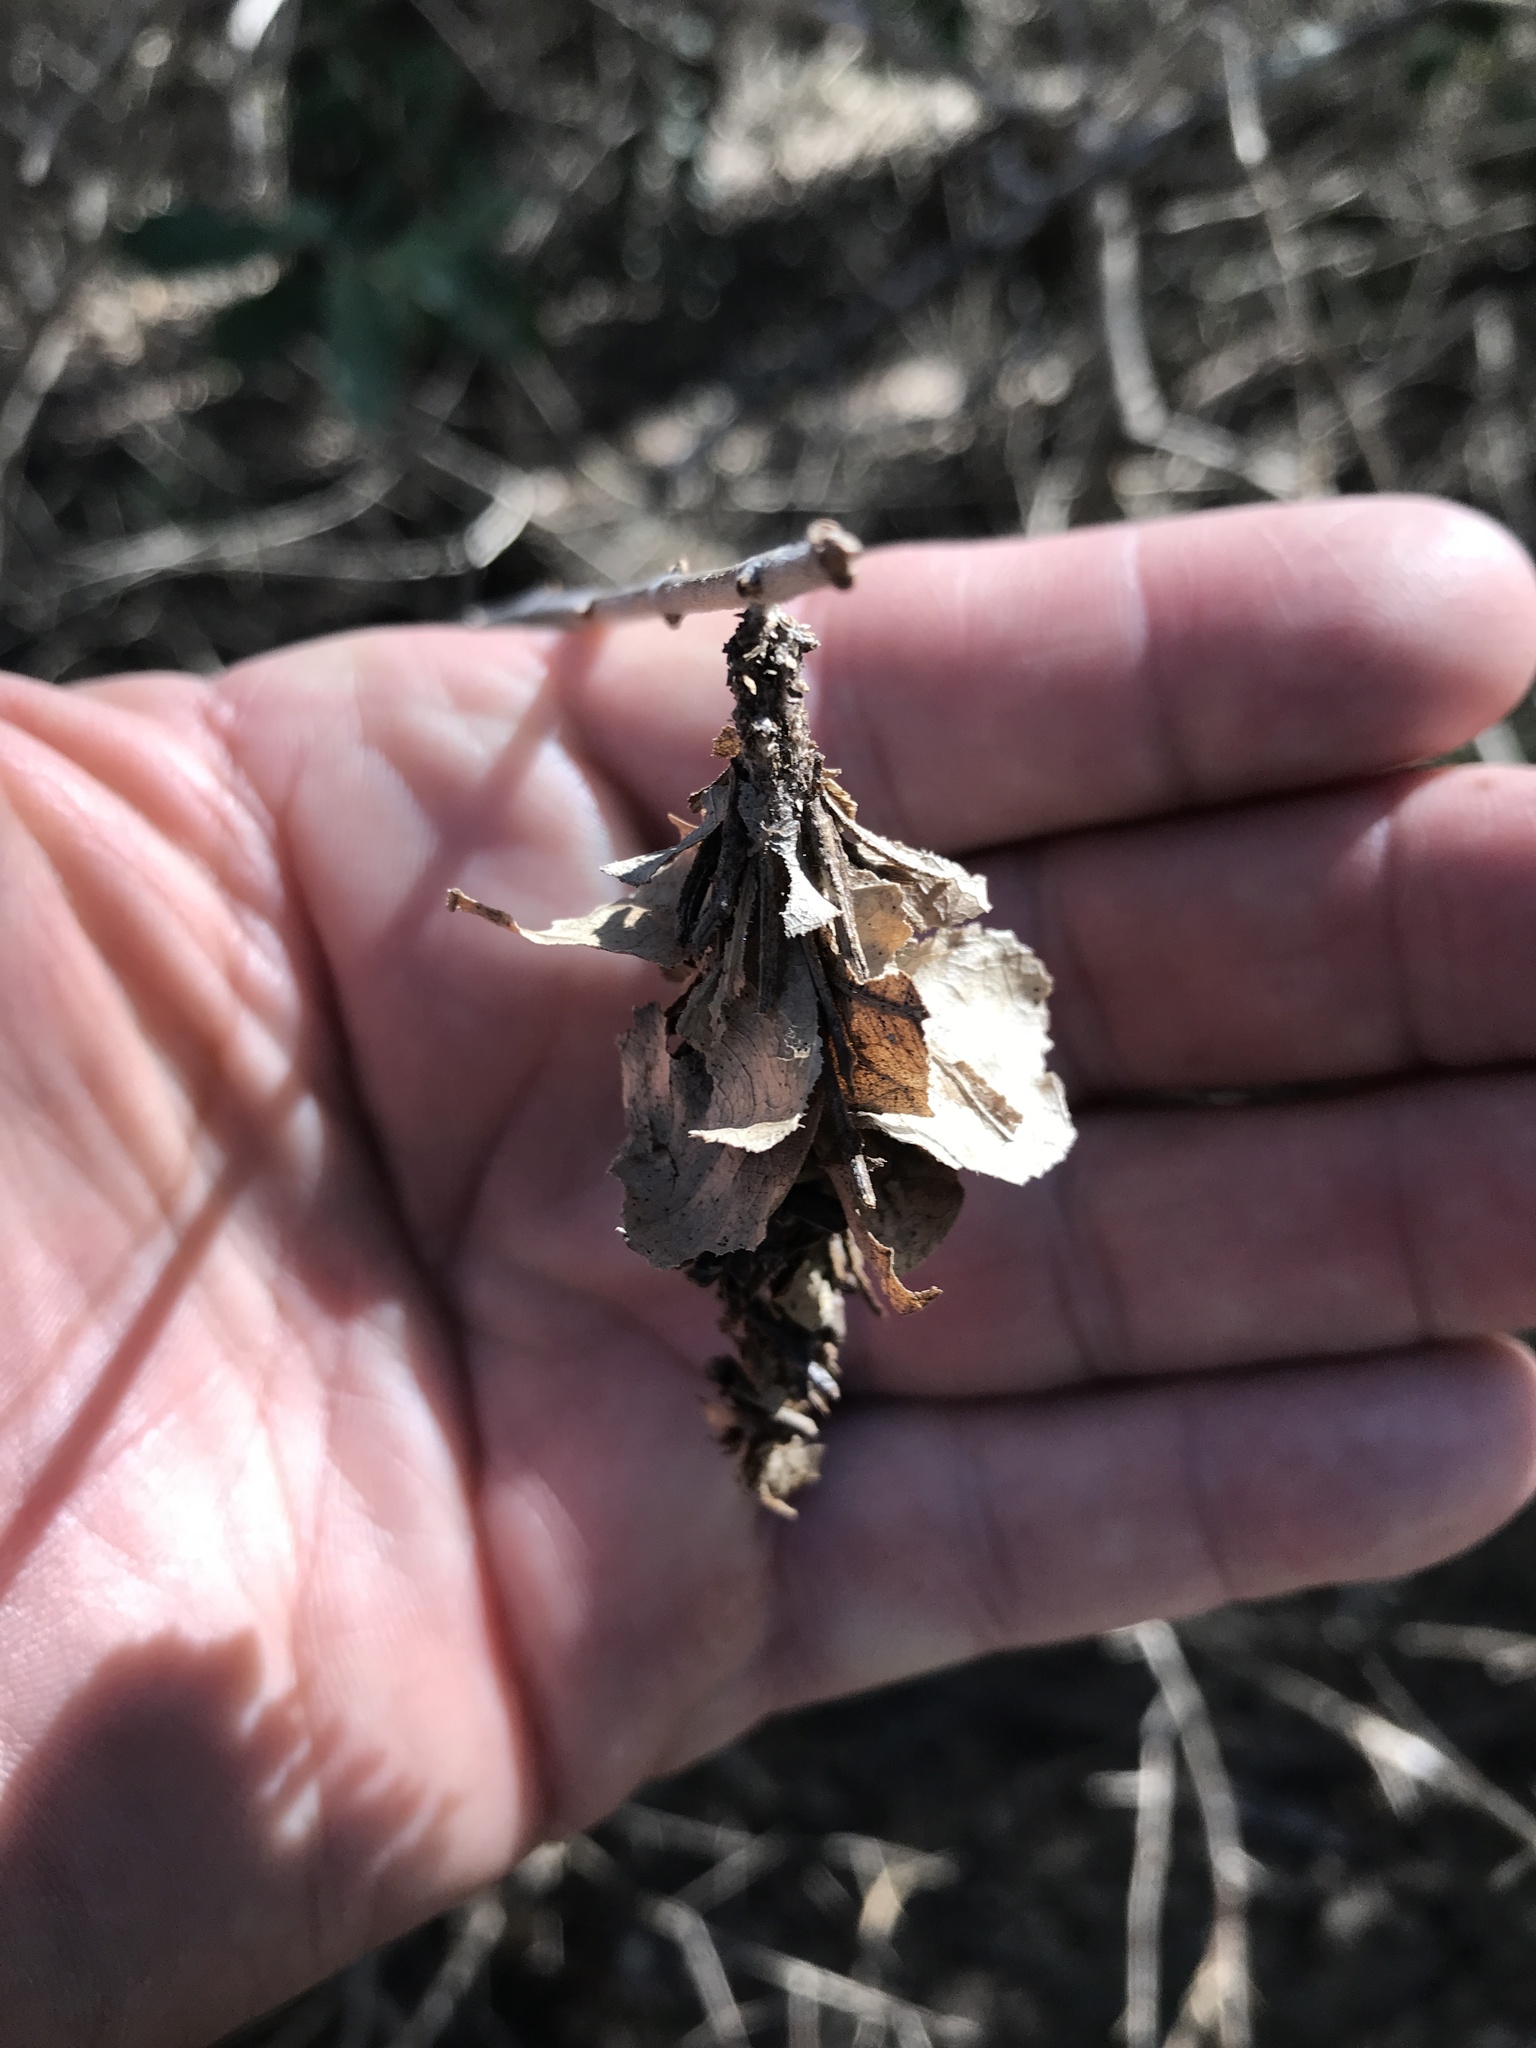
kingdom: Animalia
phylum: Arthropoda
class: Insecta
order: Lepidoptera
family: Psychidae
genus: Oiketicus
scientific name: Oiketicus
